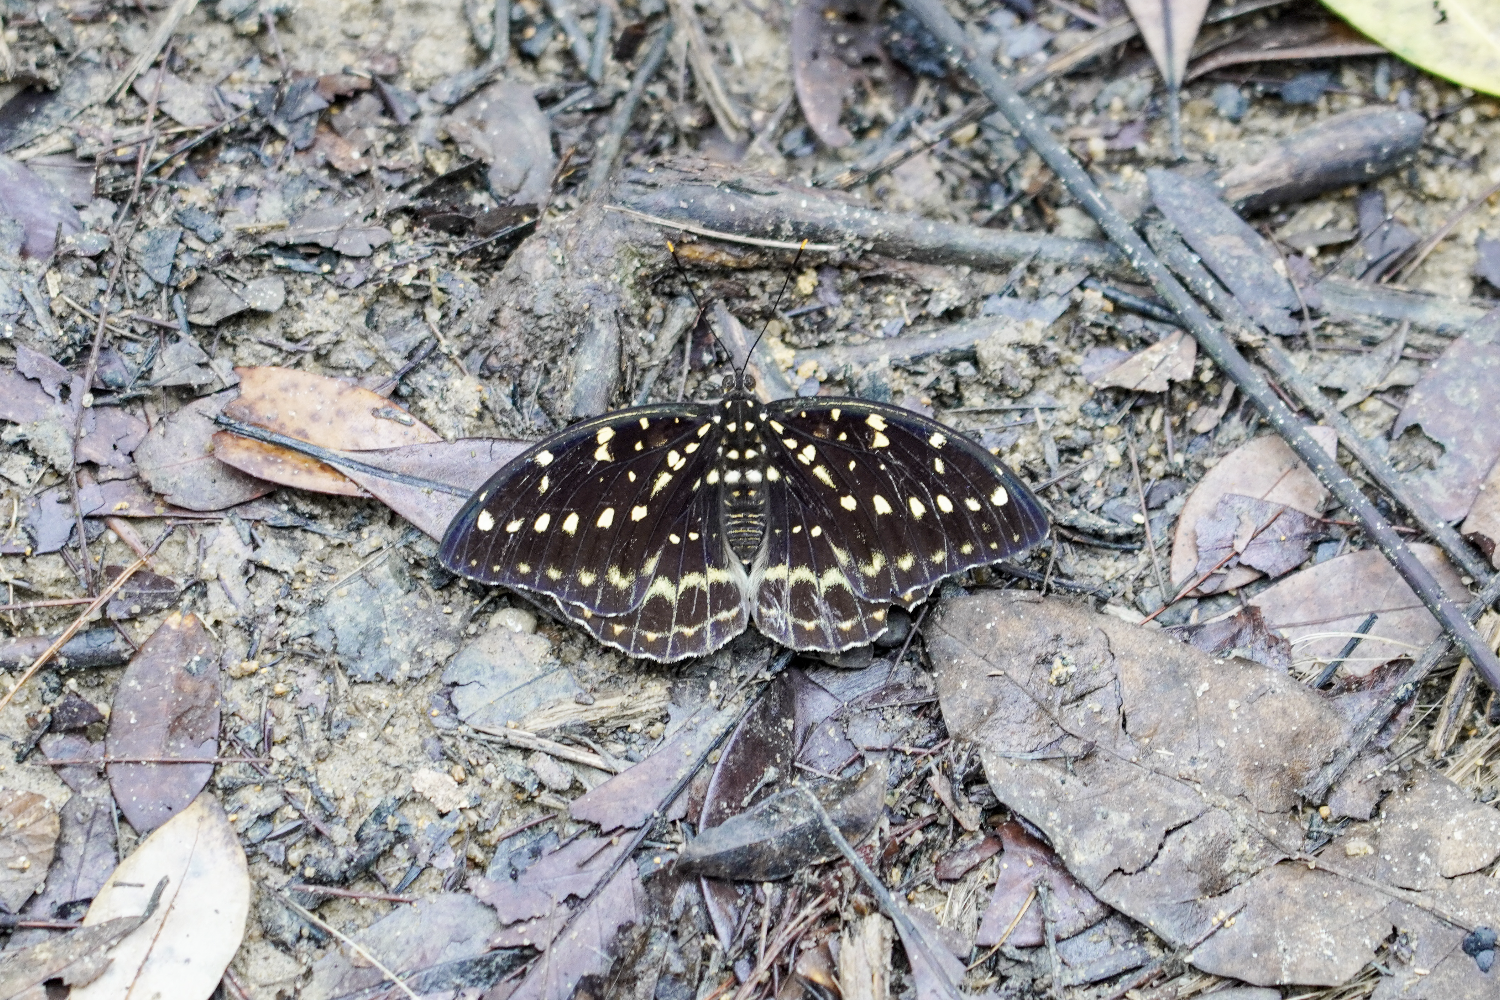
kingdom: Animalia
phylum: Arthropoda
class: Insecta
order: Lepidoptera
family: Nymphalidae
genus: Lexias
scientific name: Lexias pardalis
